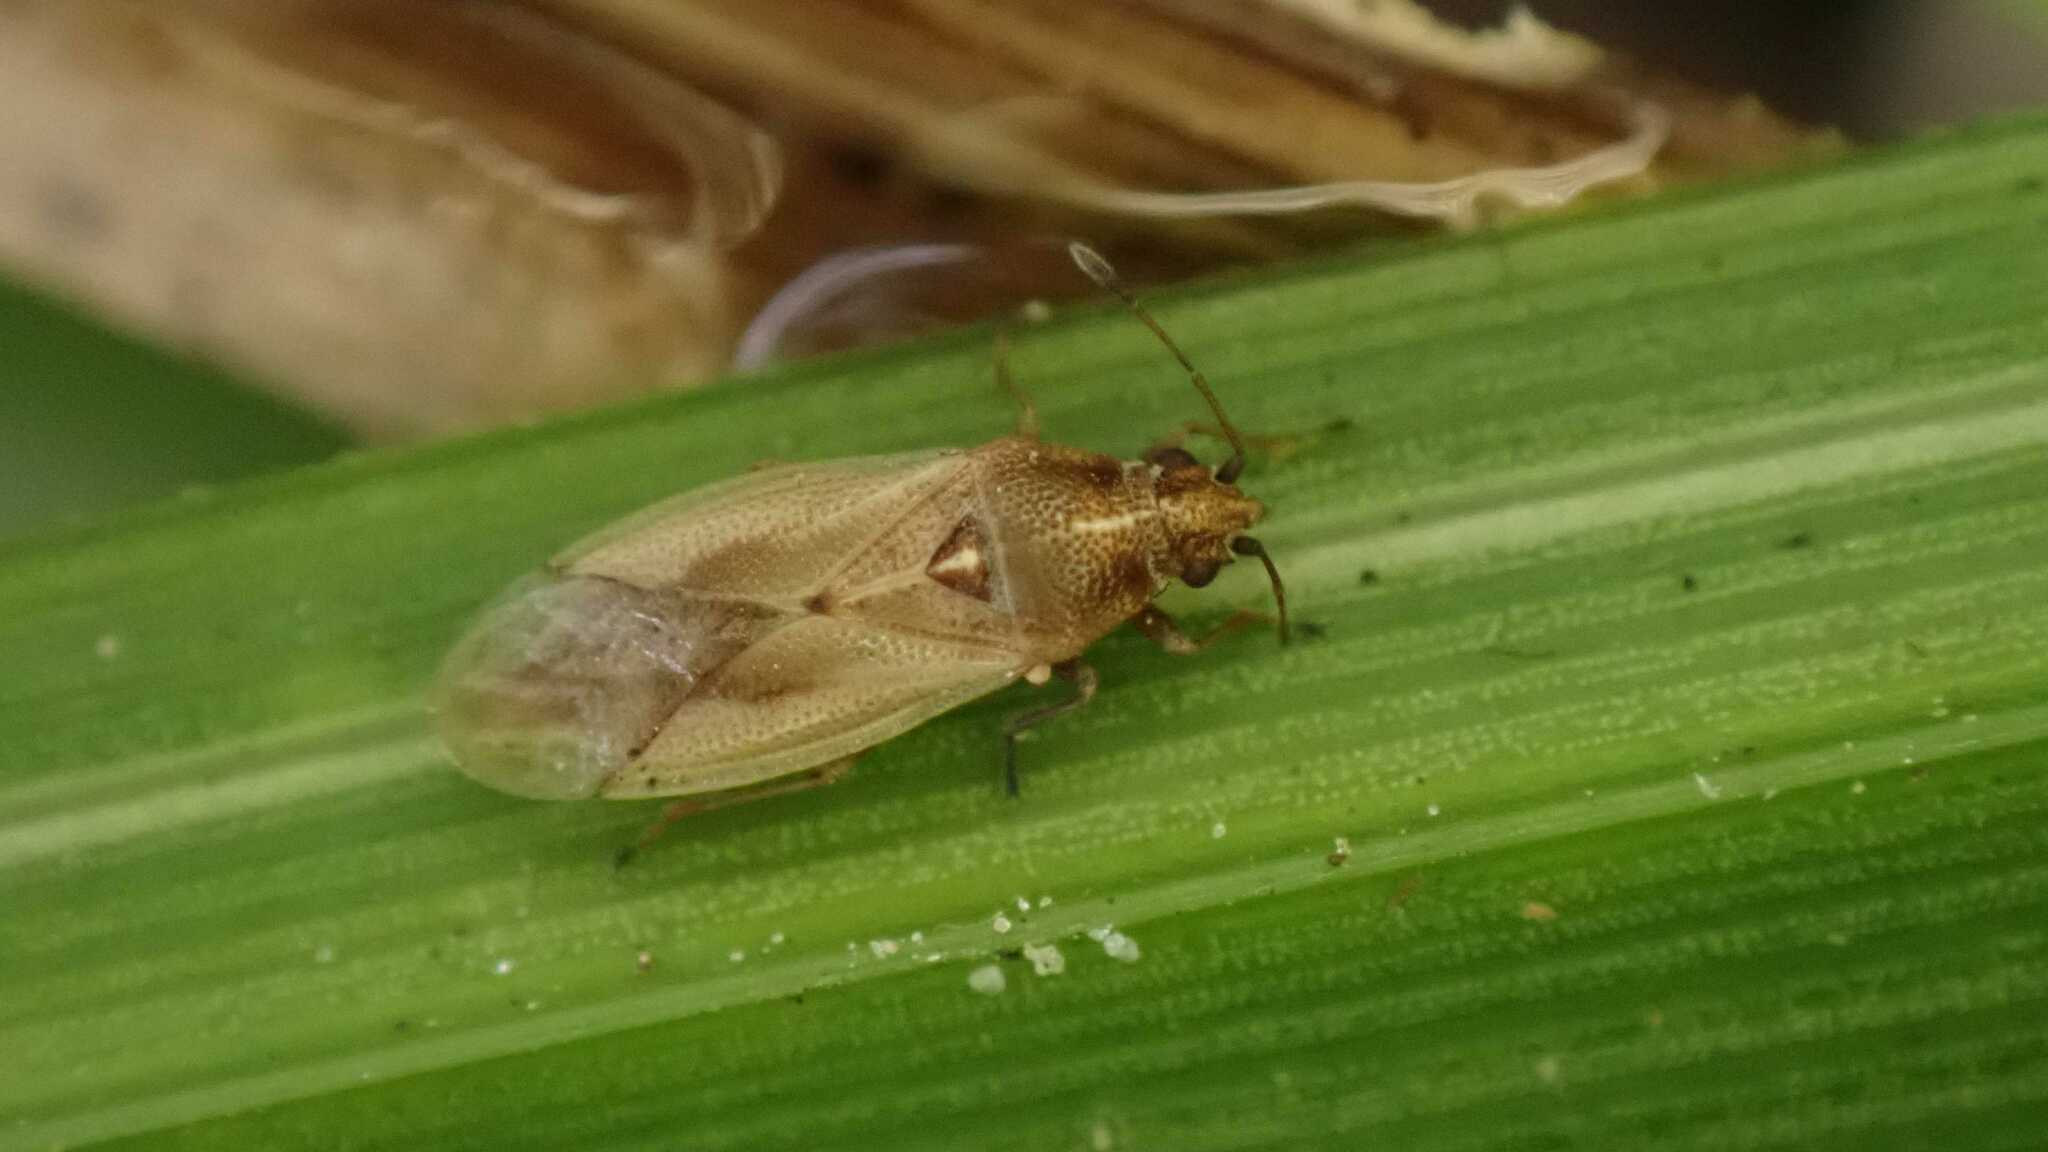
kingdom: Animalia
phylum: Arthropoda
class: Insecta
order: Hemiptera
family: Cymidae
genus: Cymus
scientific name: Cymus glandicolor
